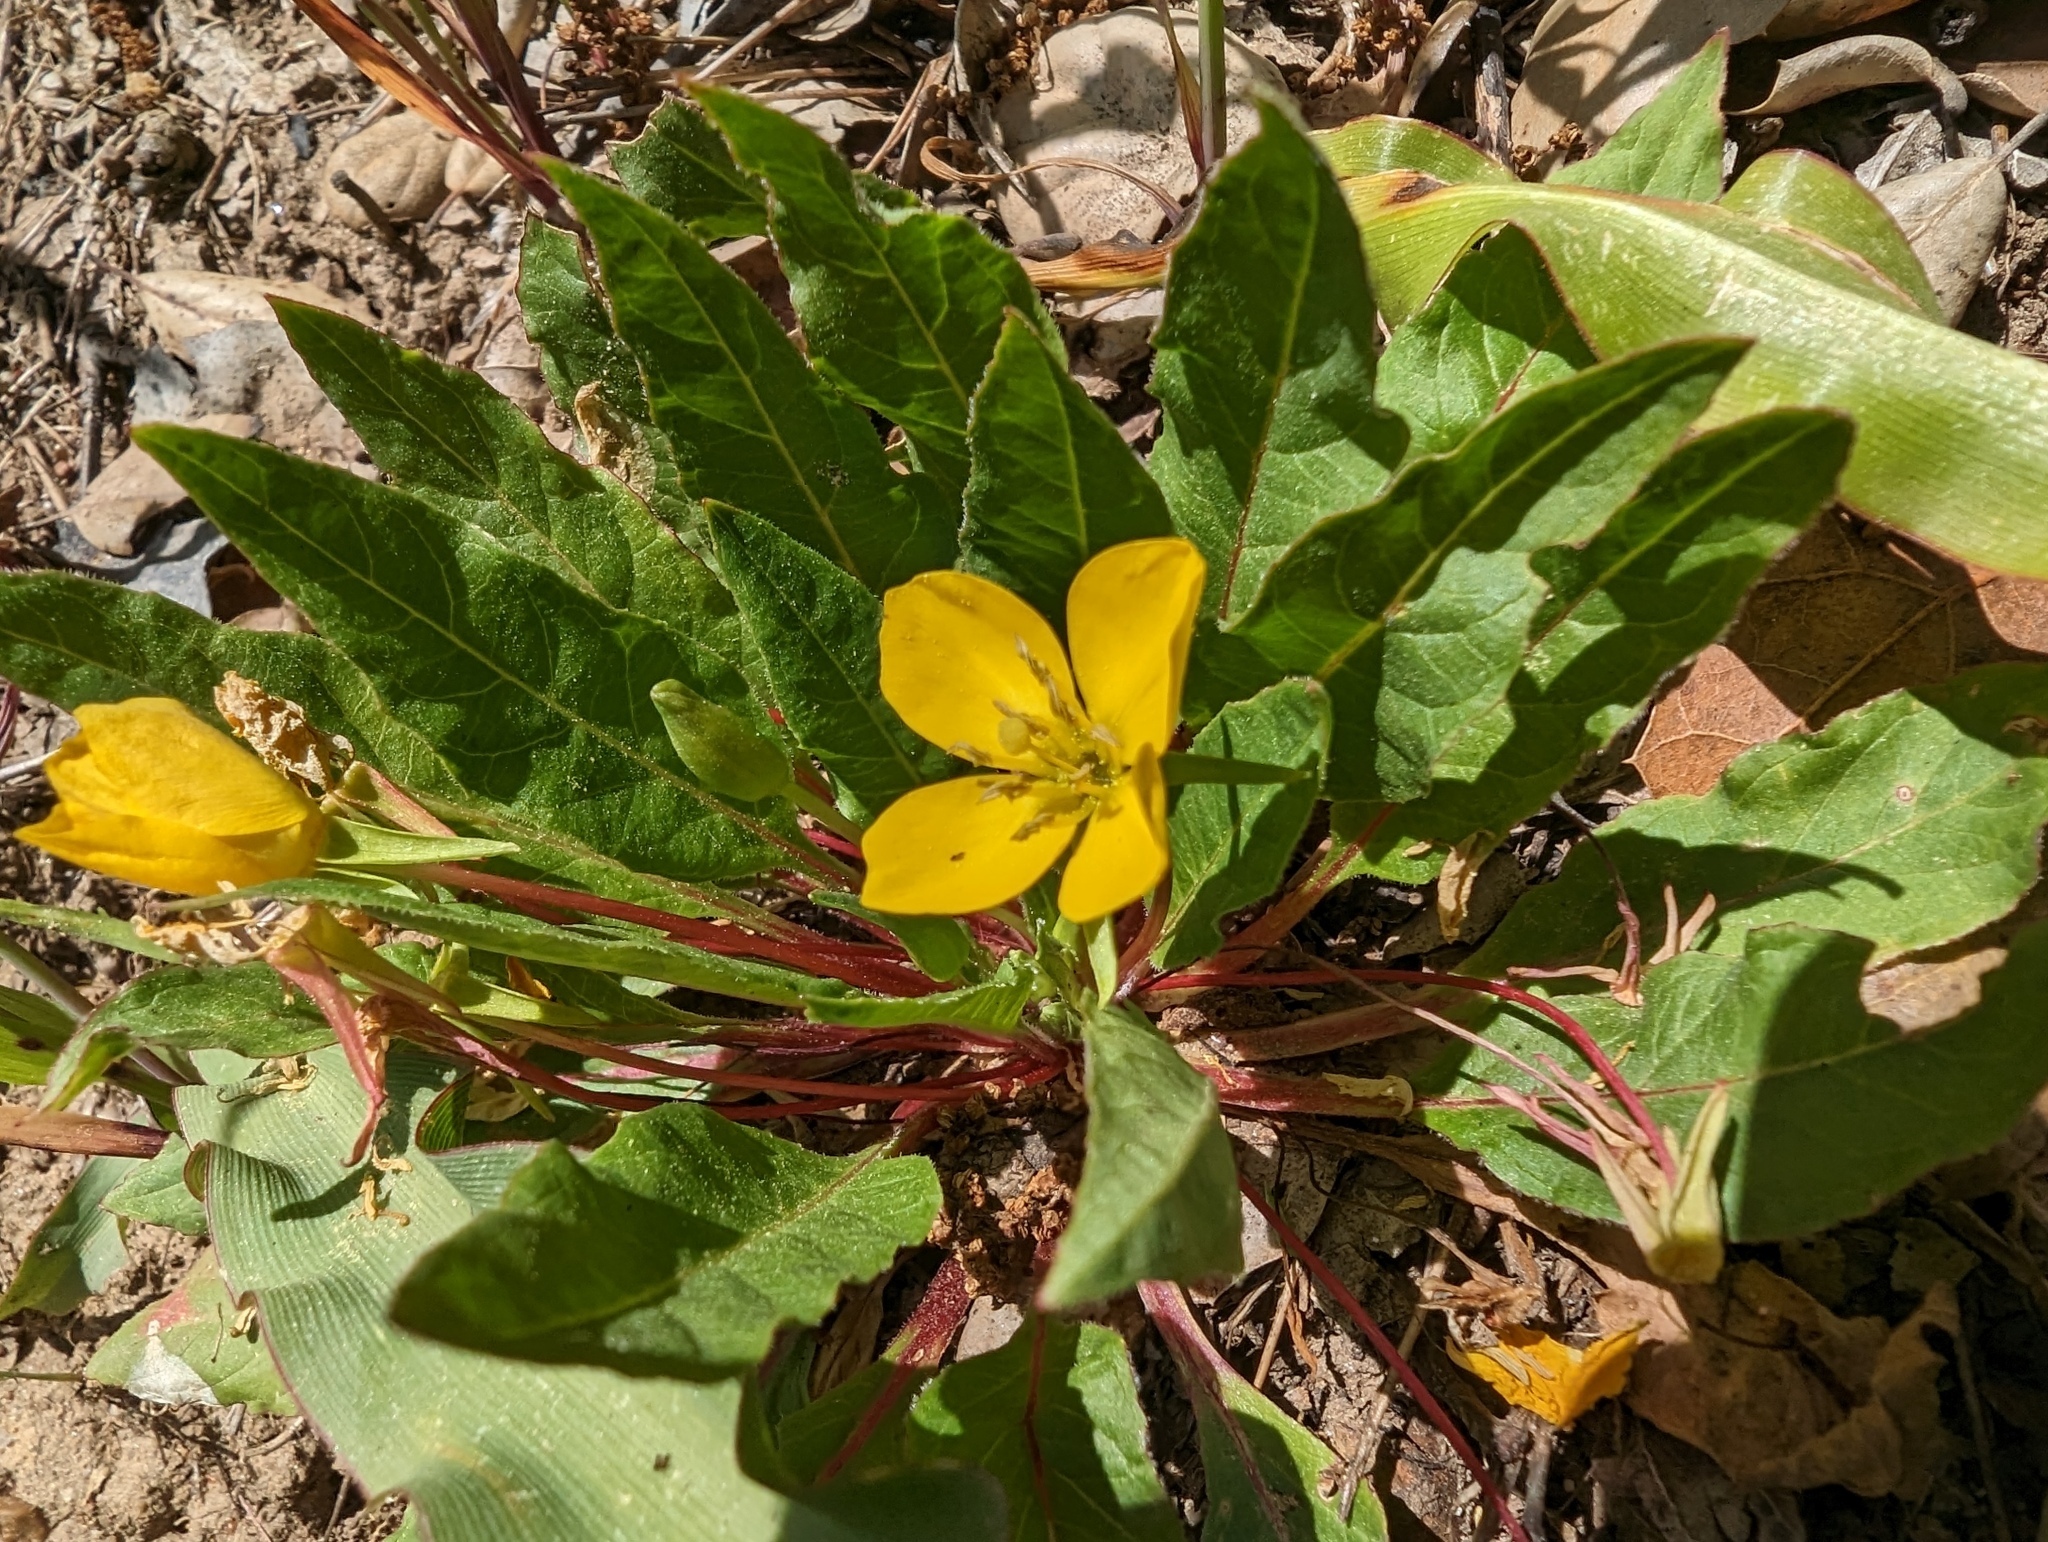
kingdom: Plantae
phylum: Tracheophyta
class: Magnoliopsida
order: Myrtales
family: Onagraceae
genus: Taraxia
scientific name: Taraxia ovata
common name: Goldeneggs
